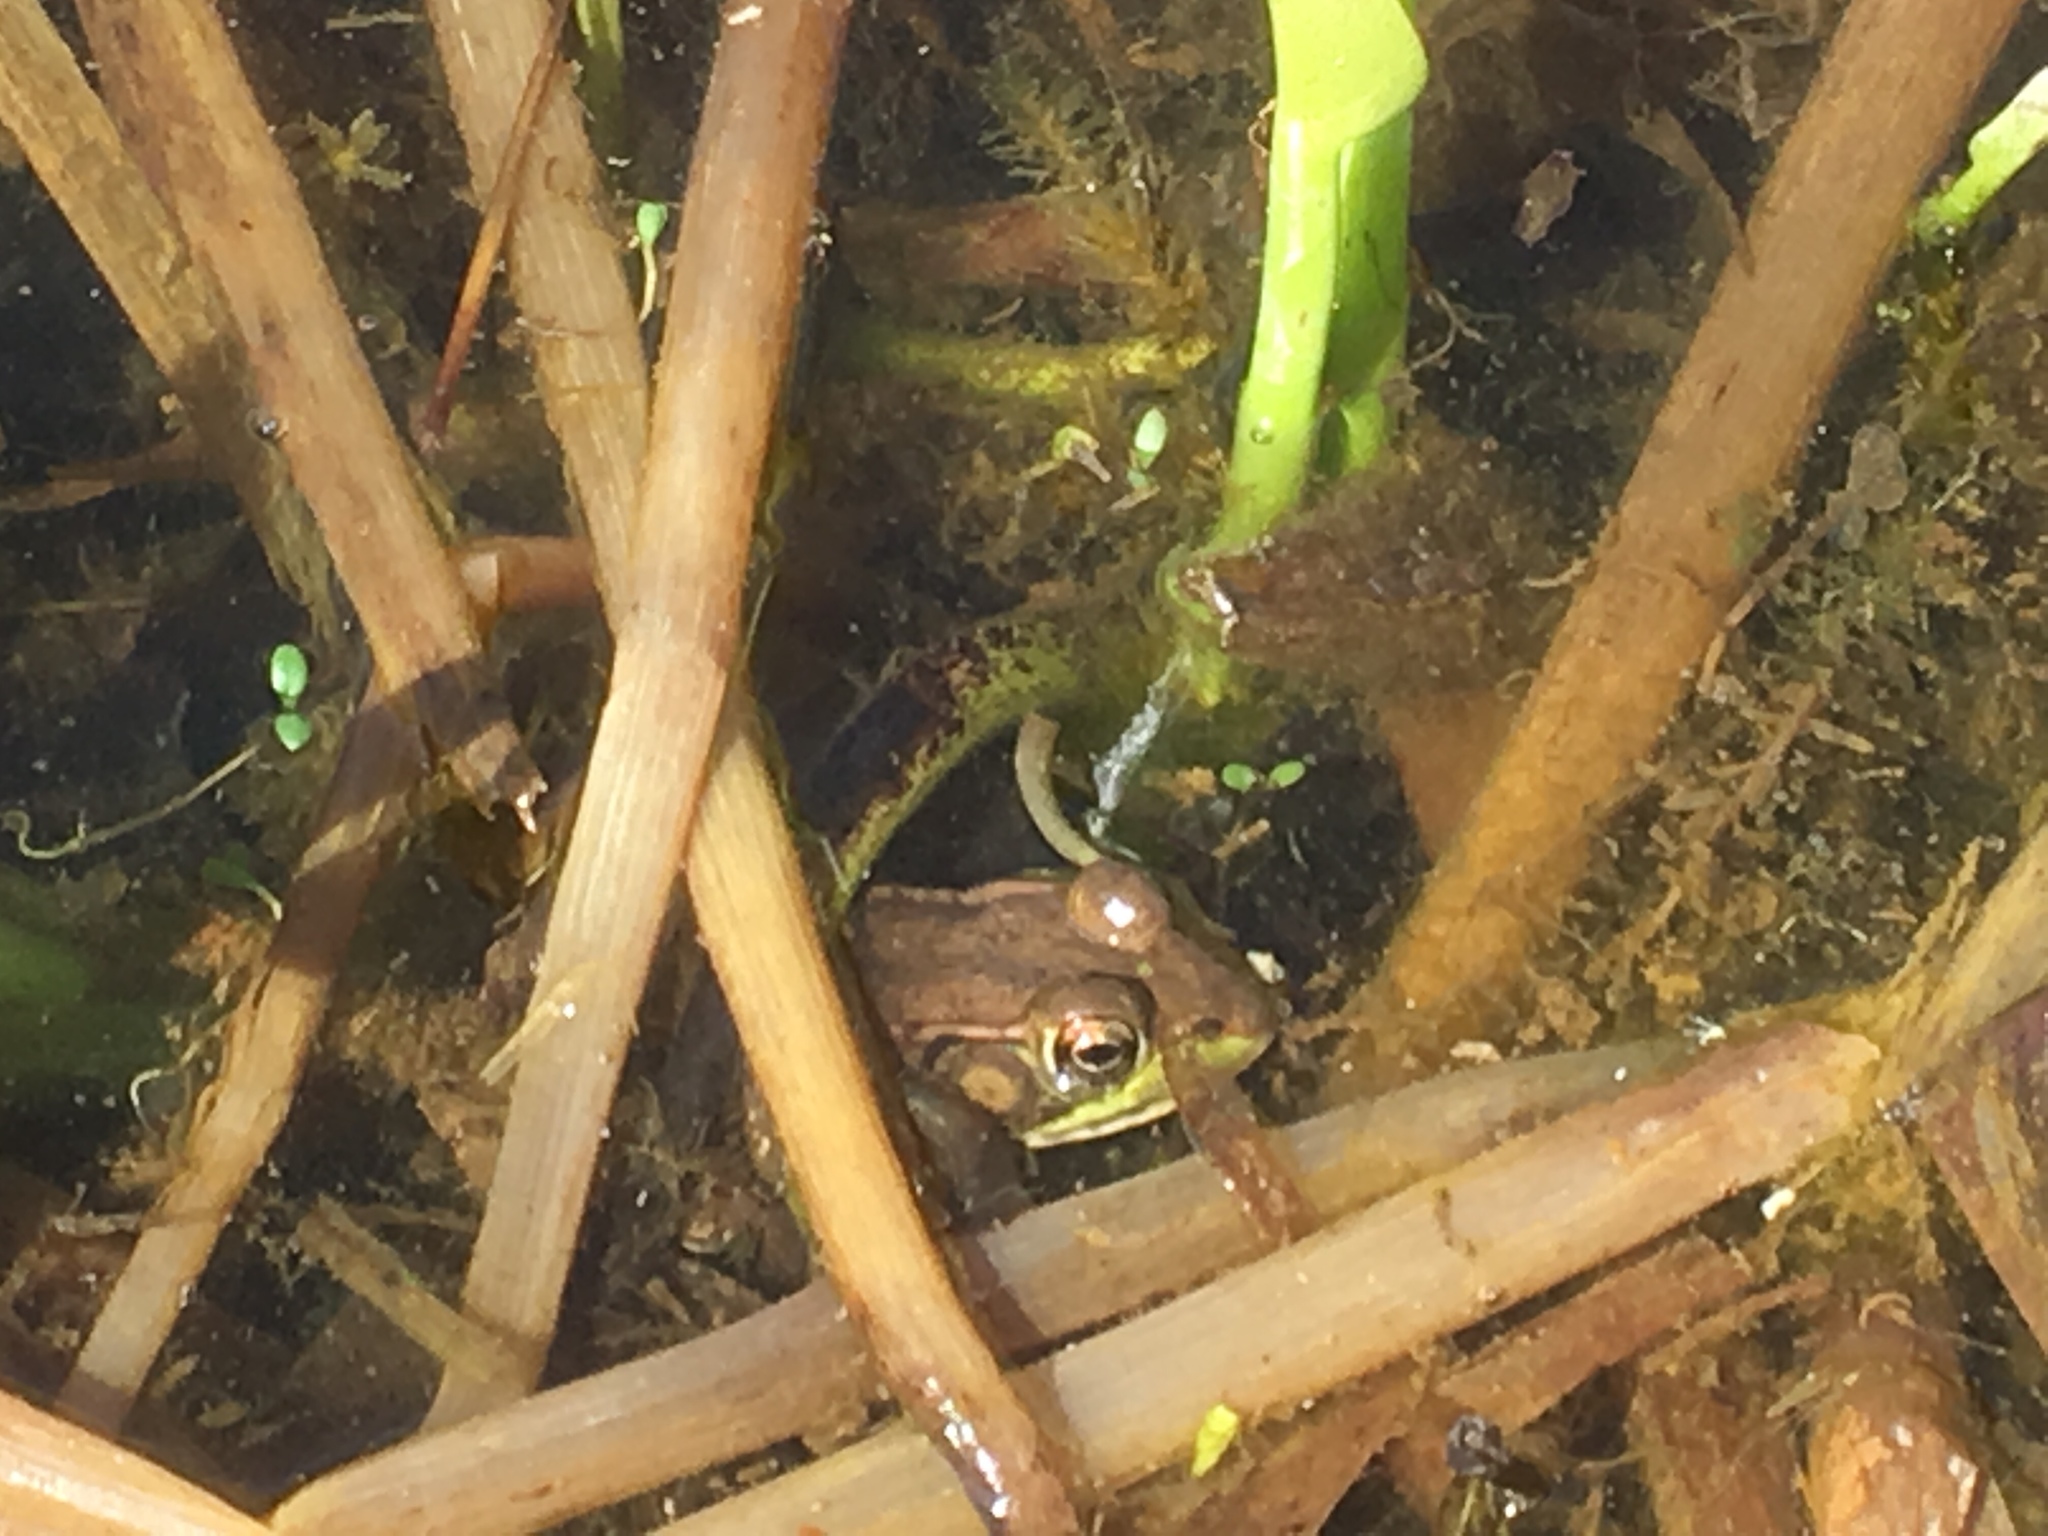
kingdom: Animalia
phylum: Chordata
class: Amphibia
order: Anura
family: Ranidae
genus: Lithobates
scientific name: Lithobates clamitans
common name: Green frog
